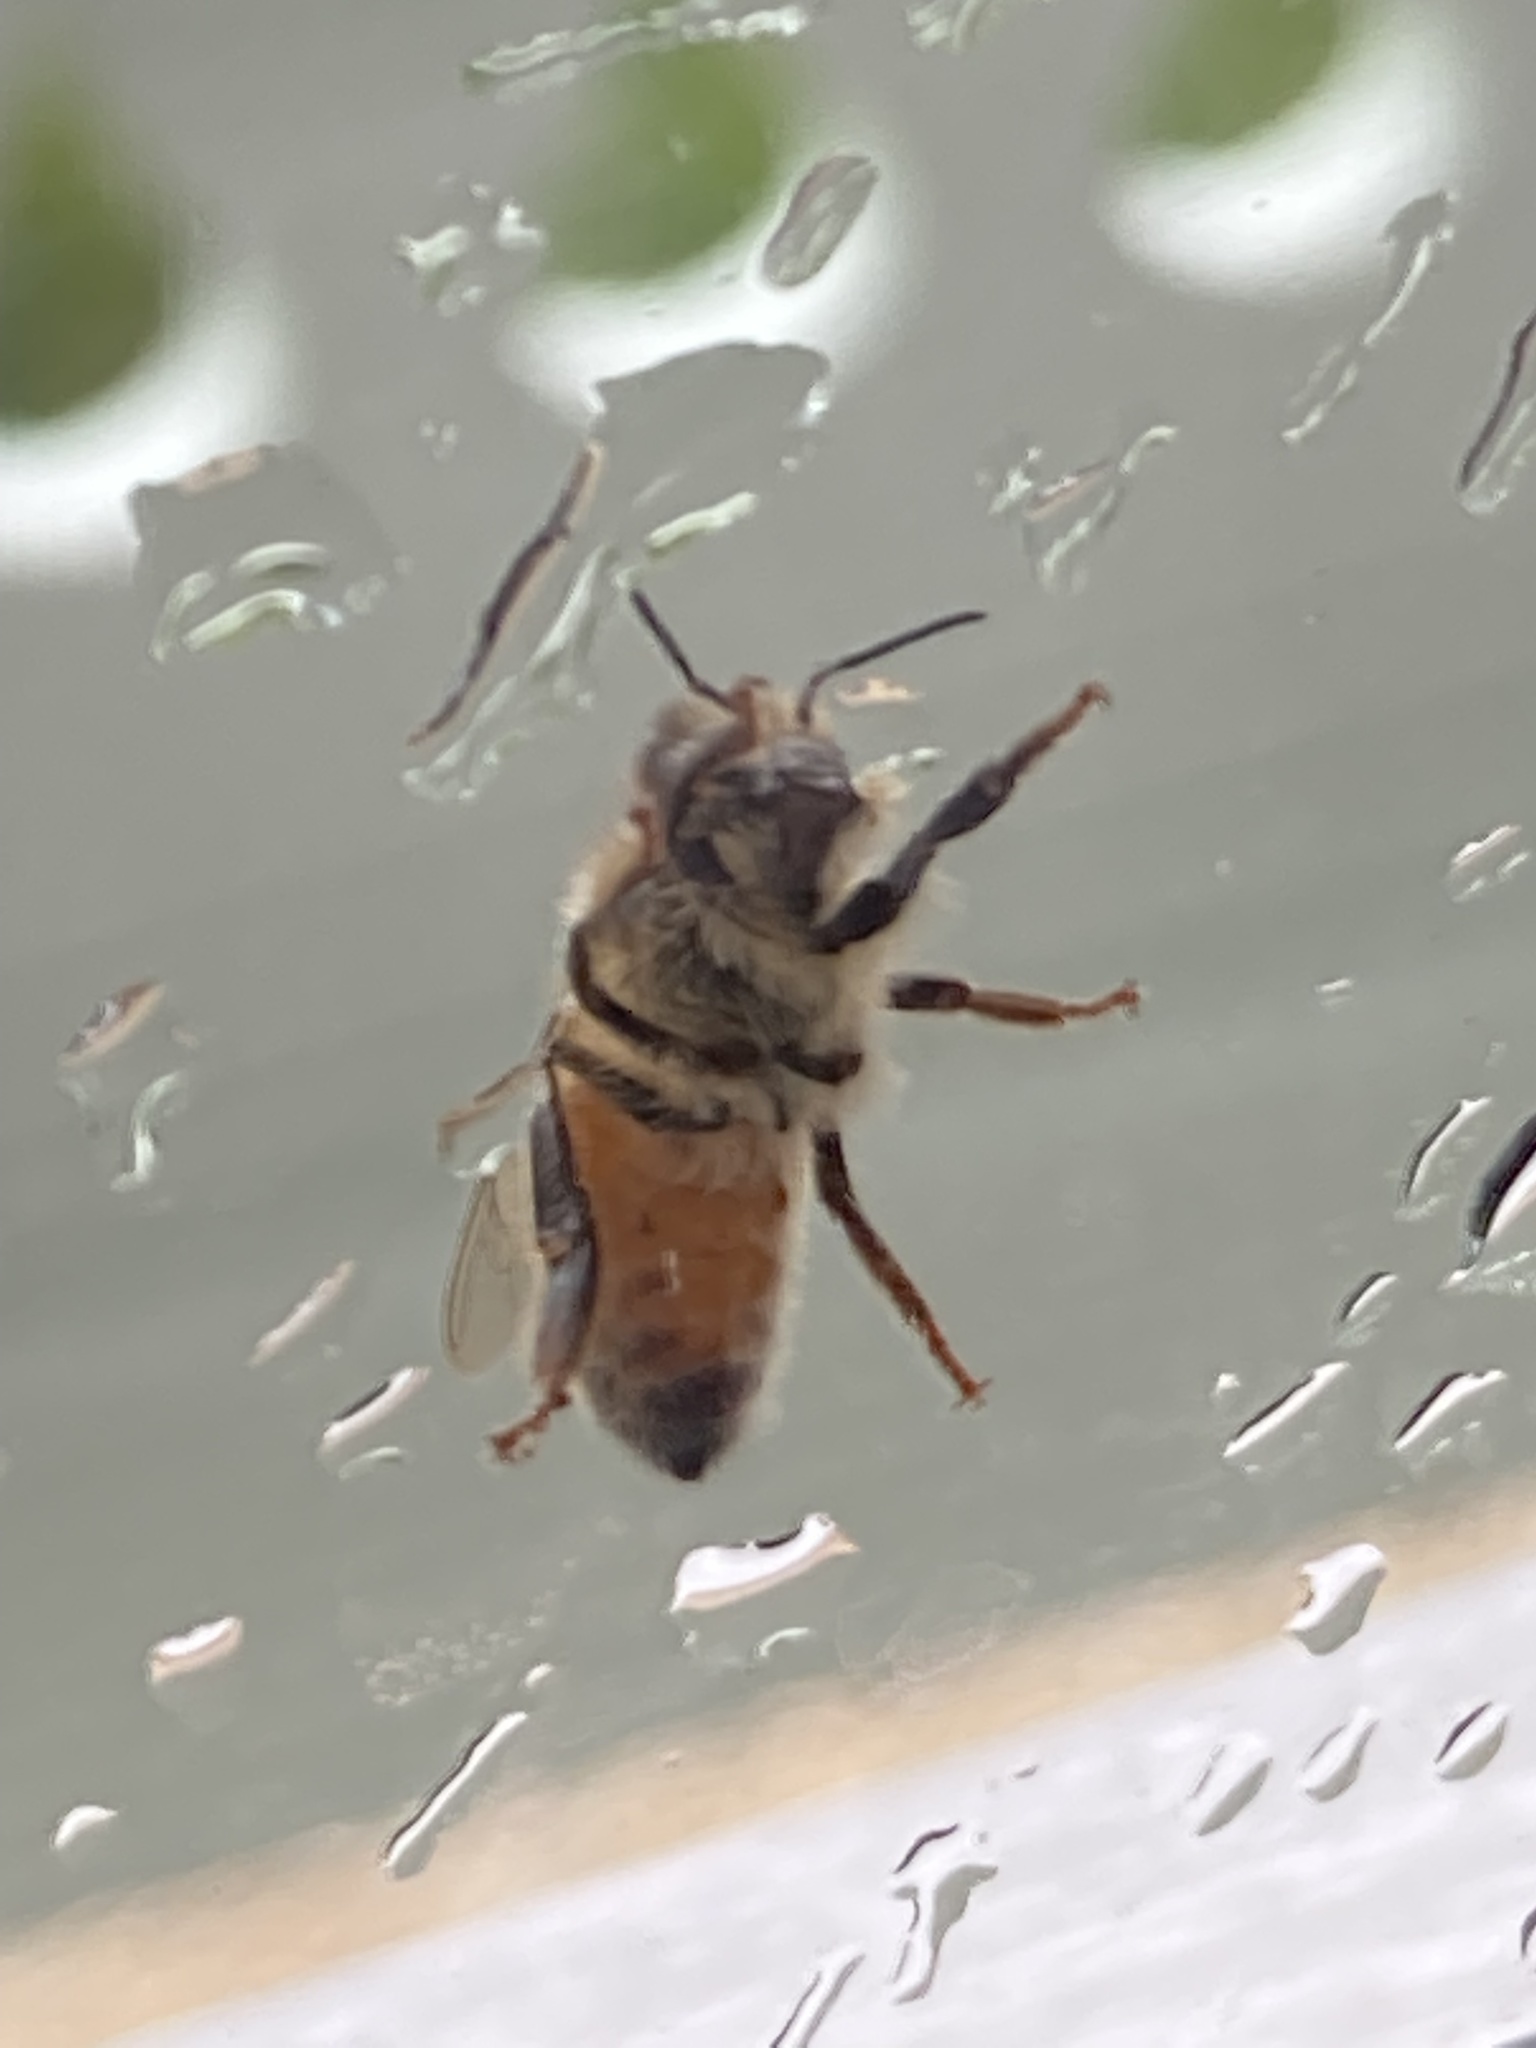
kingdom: Animalia
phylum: Arthropoda
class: Insecta
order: Hymenoptera
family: Apidae
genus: Apis
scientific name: Apis mellifera
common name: Honey bee
